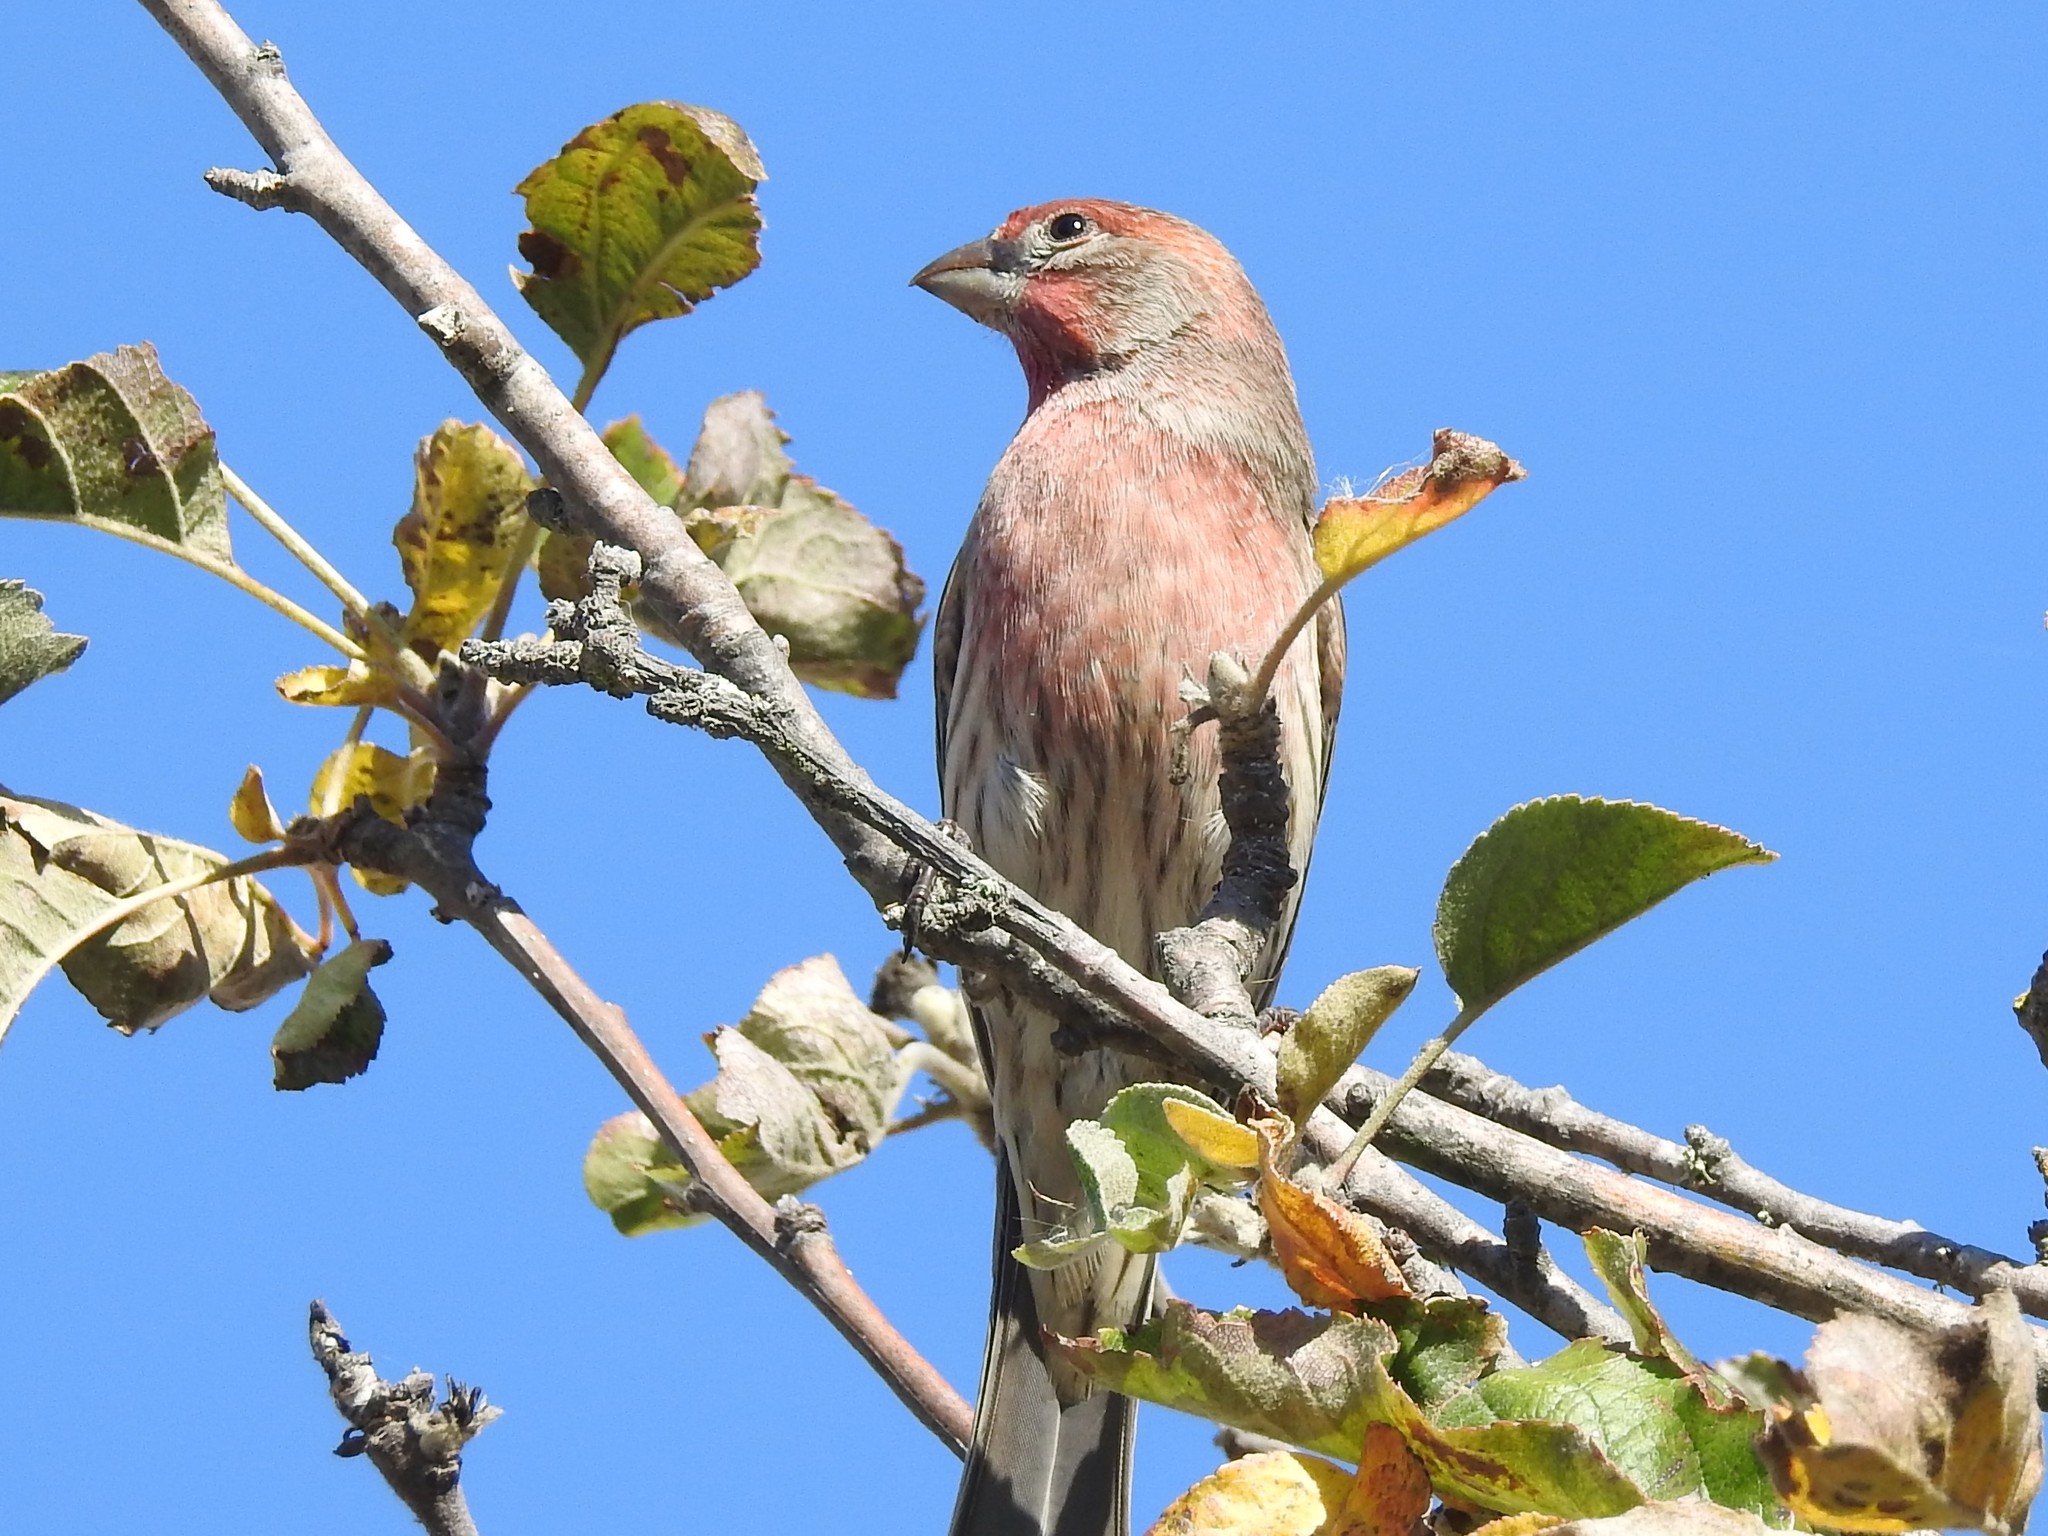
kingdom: Animalia
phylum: Chordata
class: Aves
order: Passeriformes
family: Fringillidae
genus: Haemorhous
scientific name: Haemorhous mexicanus
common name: House finch
